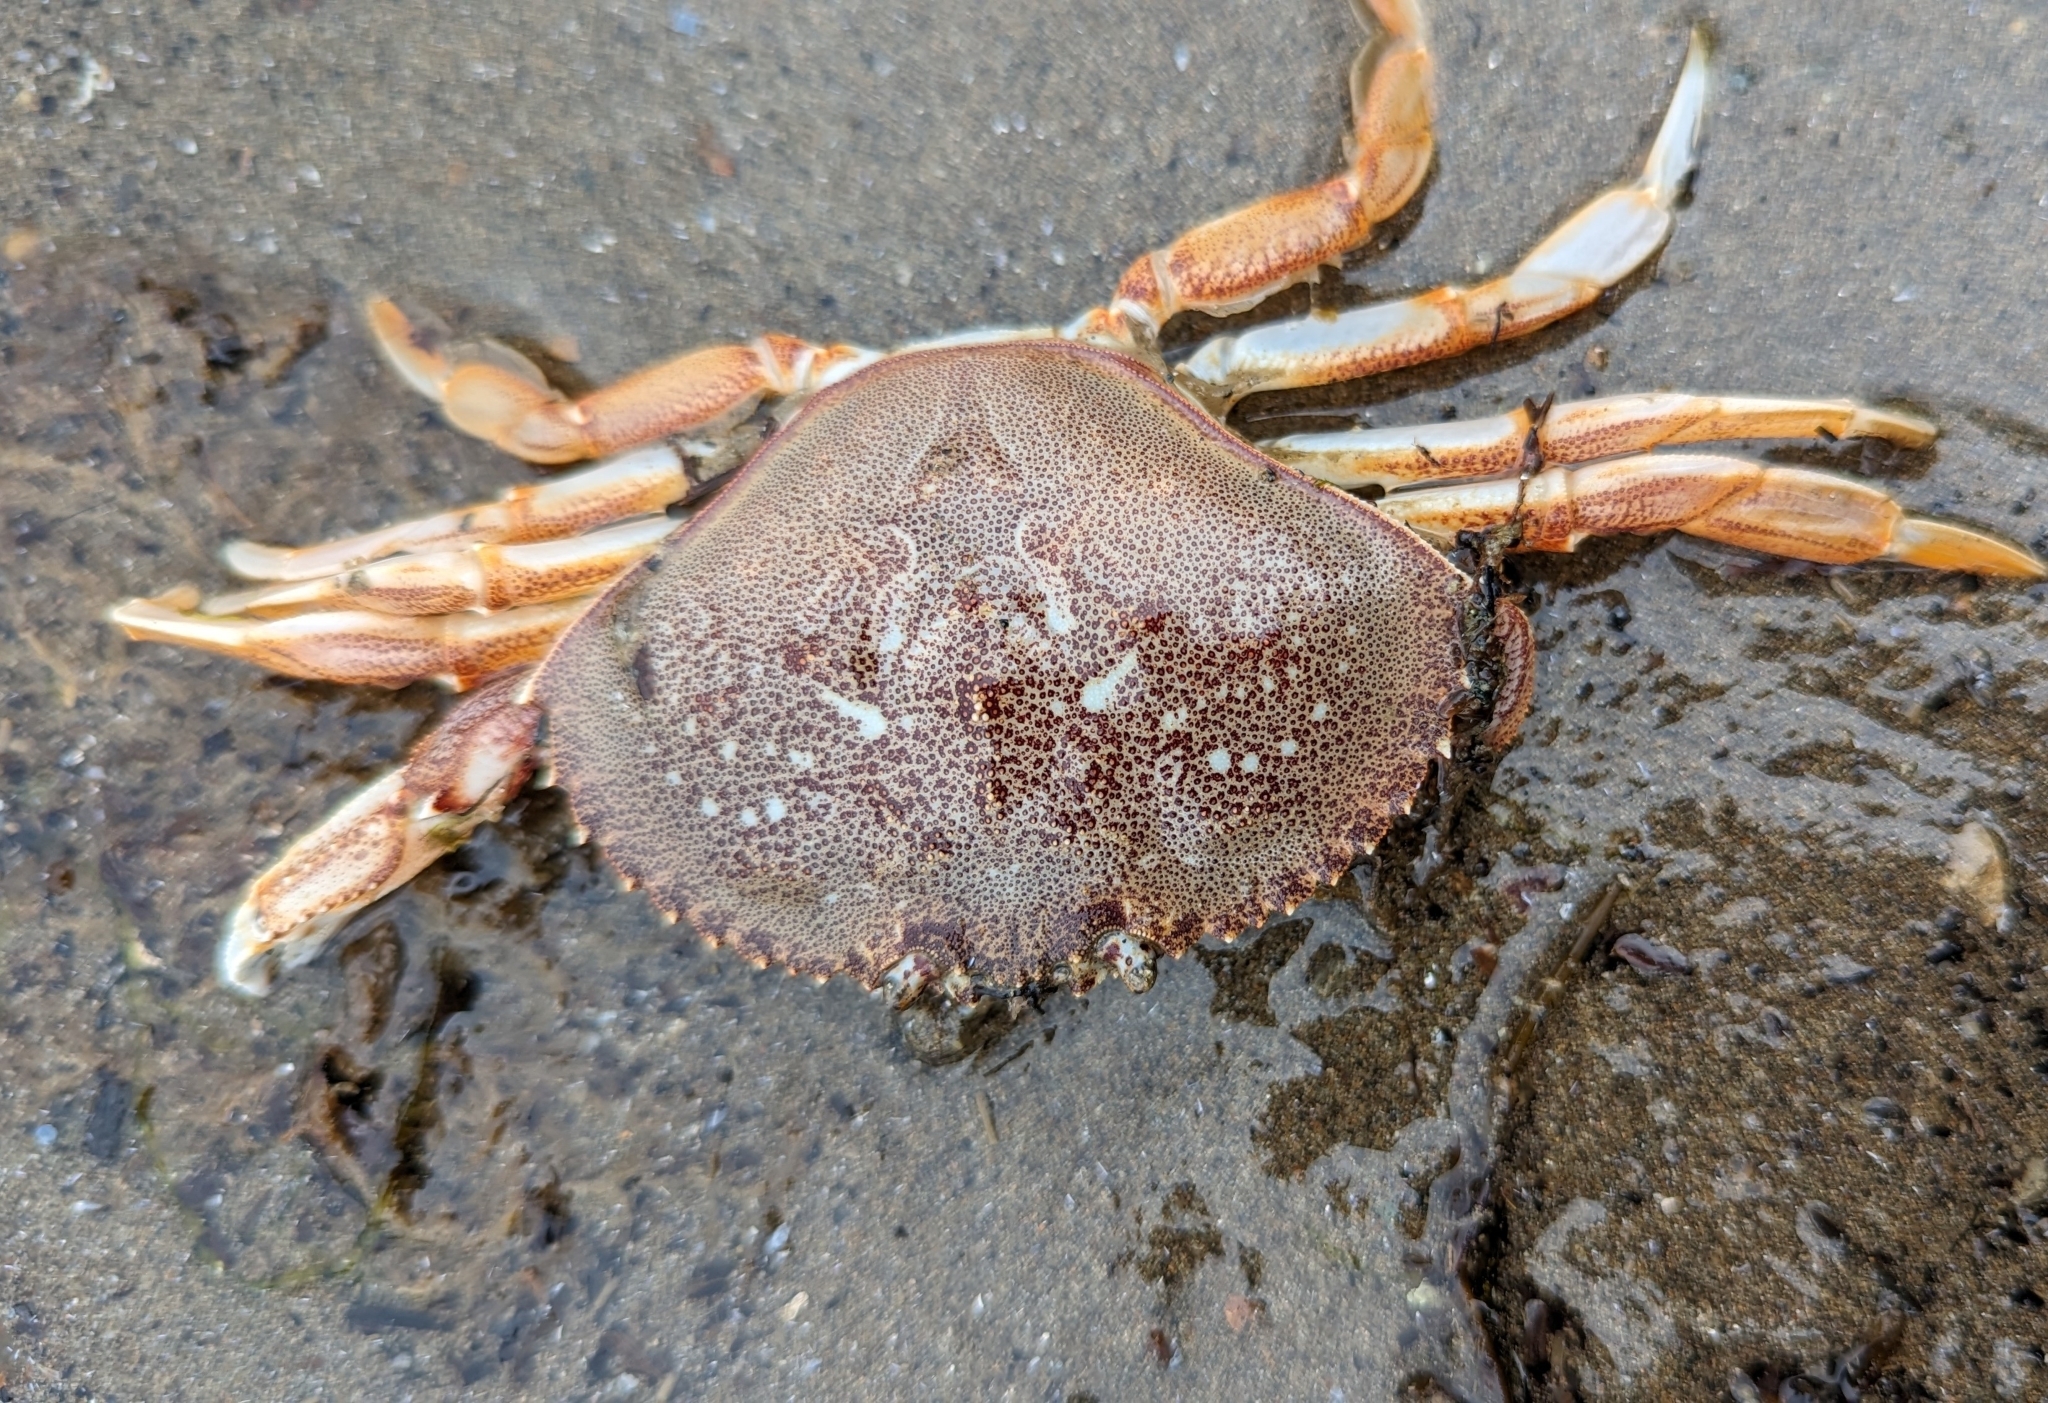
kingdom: Animalia
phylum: Arthropoda
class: Malacostraca
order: Decapoda
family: Cancridae
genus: Metacarcinus
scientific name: Metacarcinus magister
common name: Californian crab
